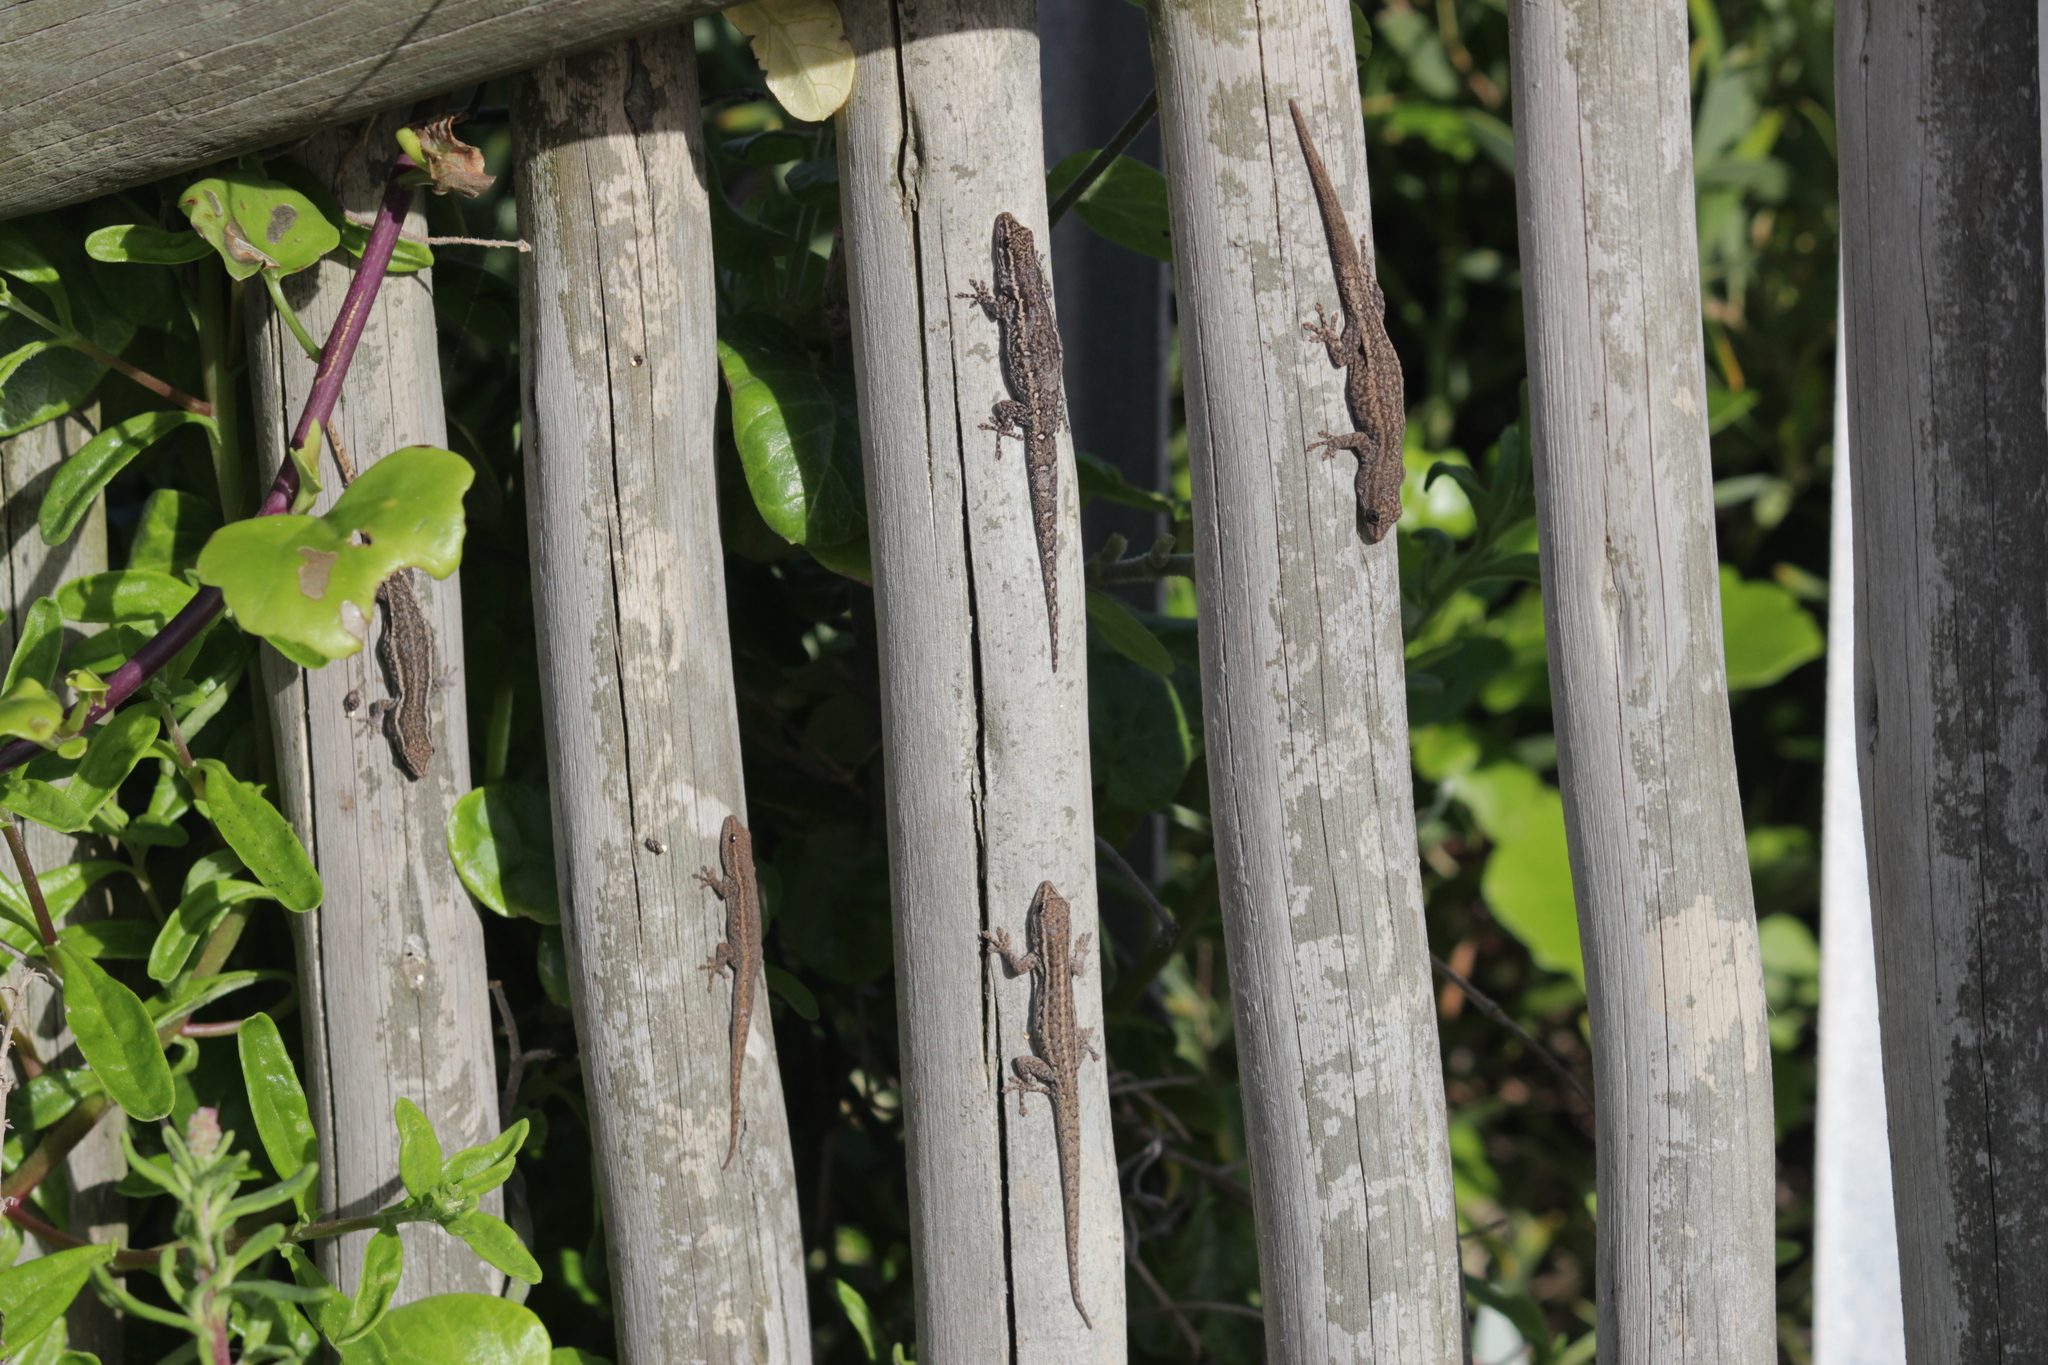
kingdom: Animalia
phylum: Chordata
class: Squamata
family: Gekkonidae
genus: Lygodactylus
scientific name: Lygodactylus capensis
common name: Cape dwarf gecko
